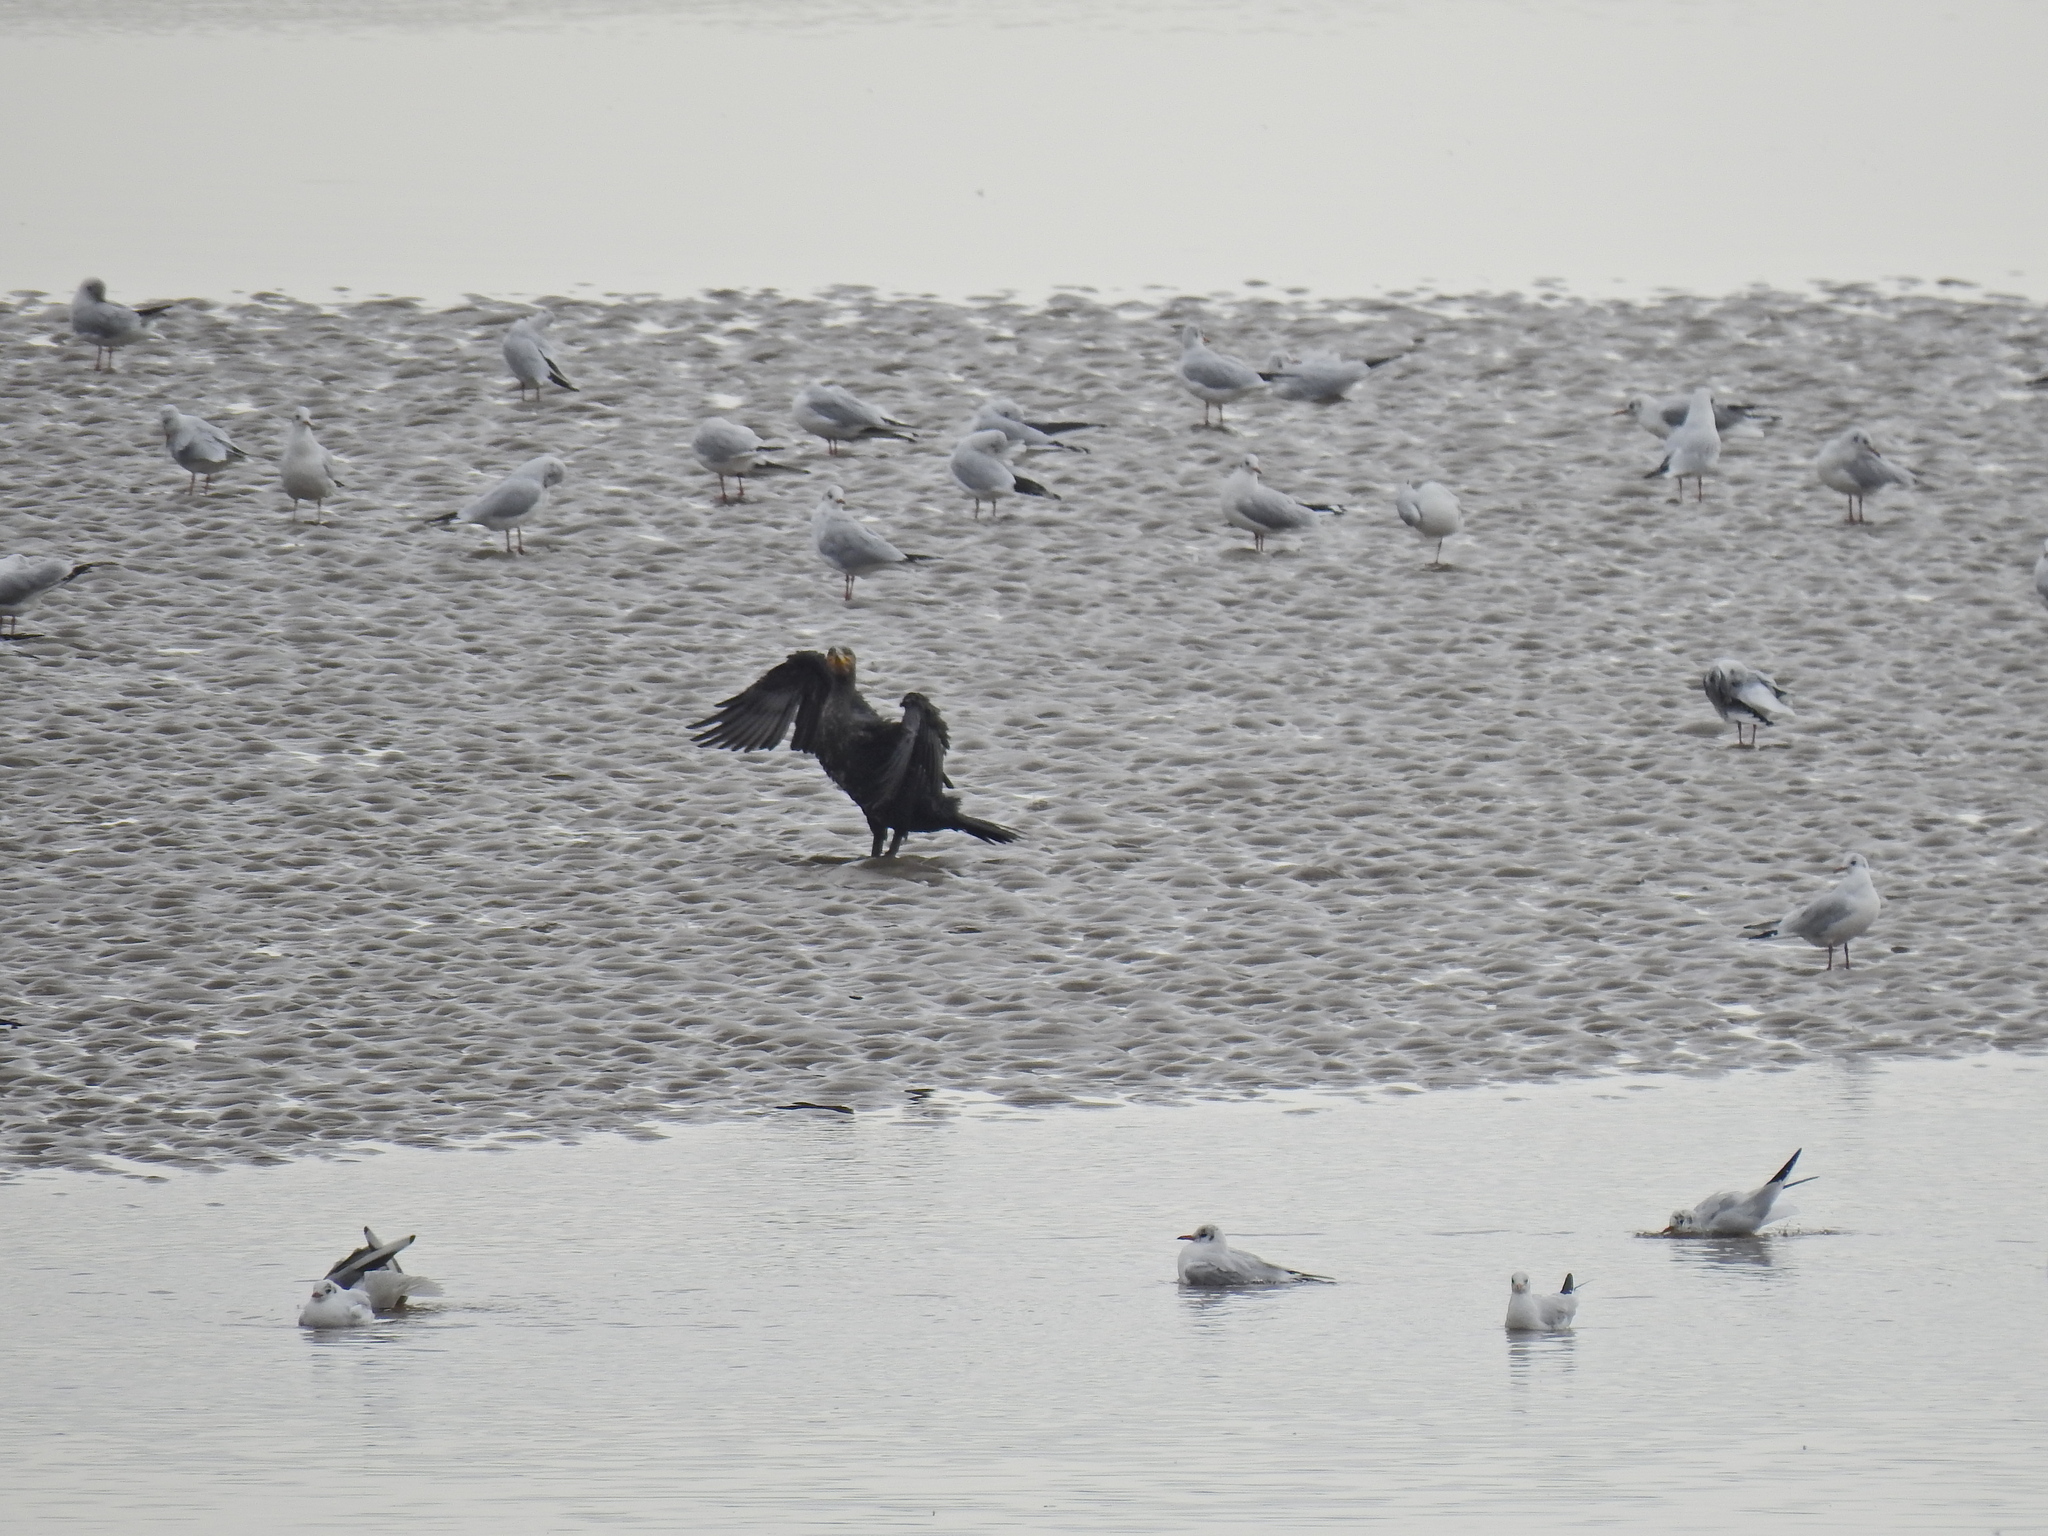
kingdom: Animalia
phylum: Chordata
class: Aves
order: Suliformes
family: Phalacrocoracidae
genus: Phalacrocorax
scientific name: Phalacrocorax carbo
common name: Great cormorant
